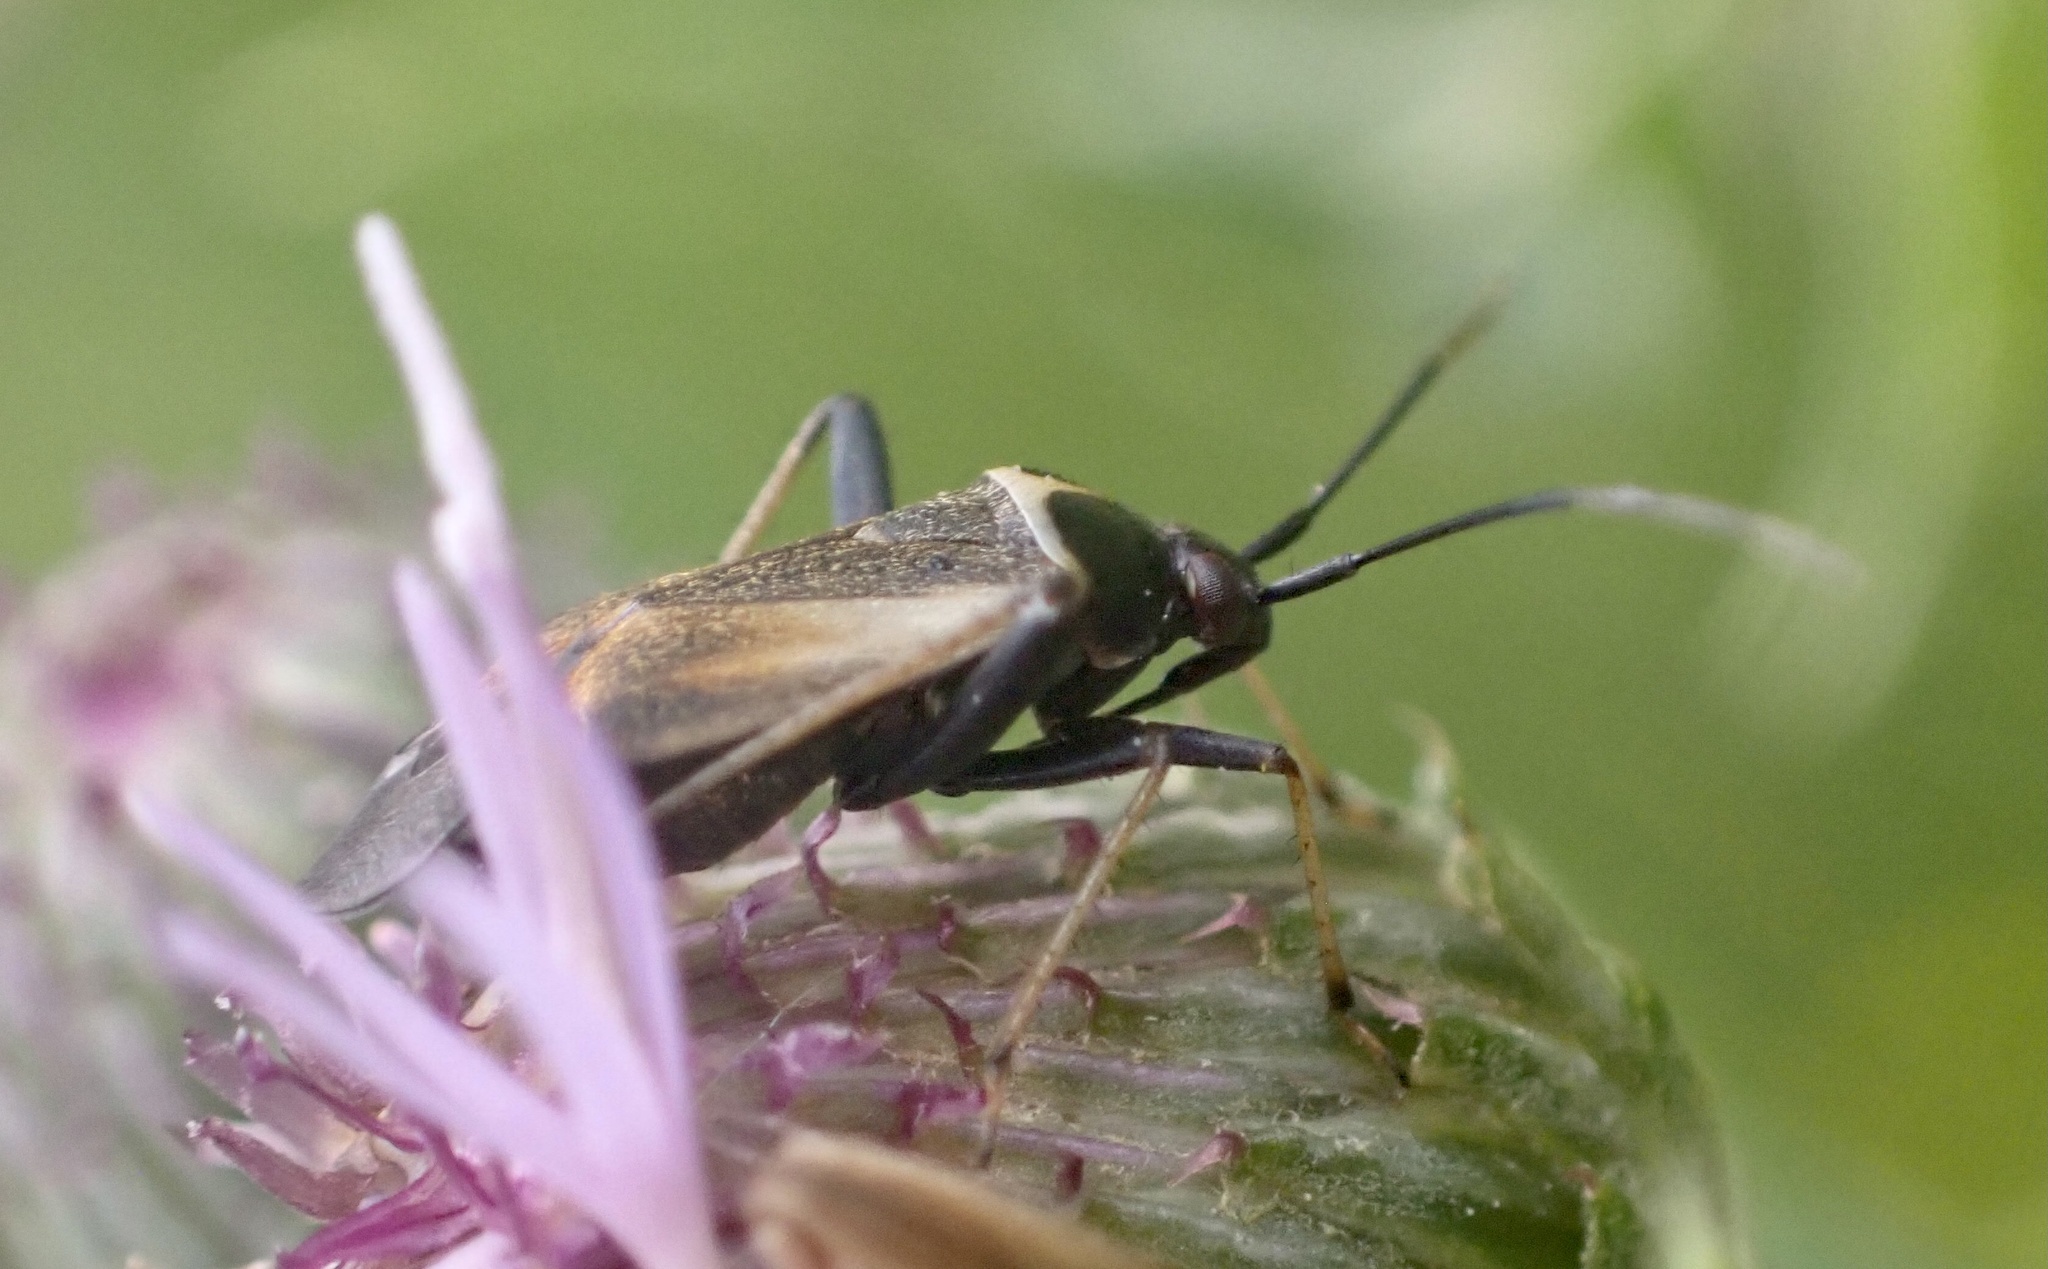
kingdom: Animalia
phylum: Arthropoda
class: Insecta
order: Hemiptera
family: Miridae
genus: Adelphocoris
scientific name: Adelphocoris seticornis
